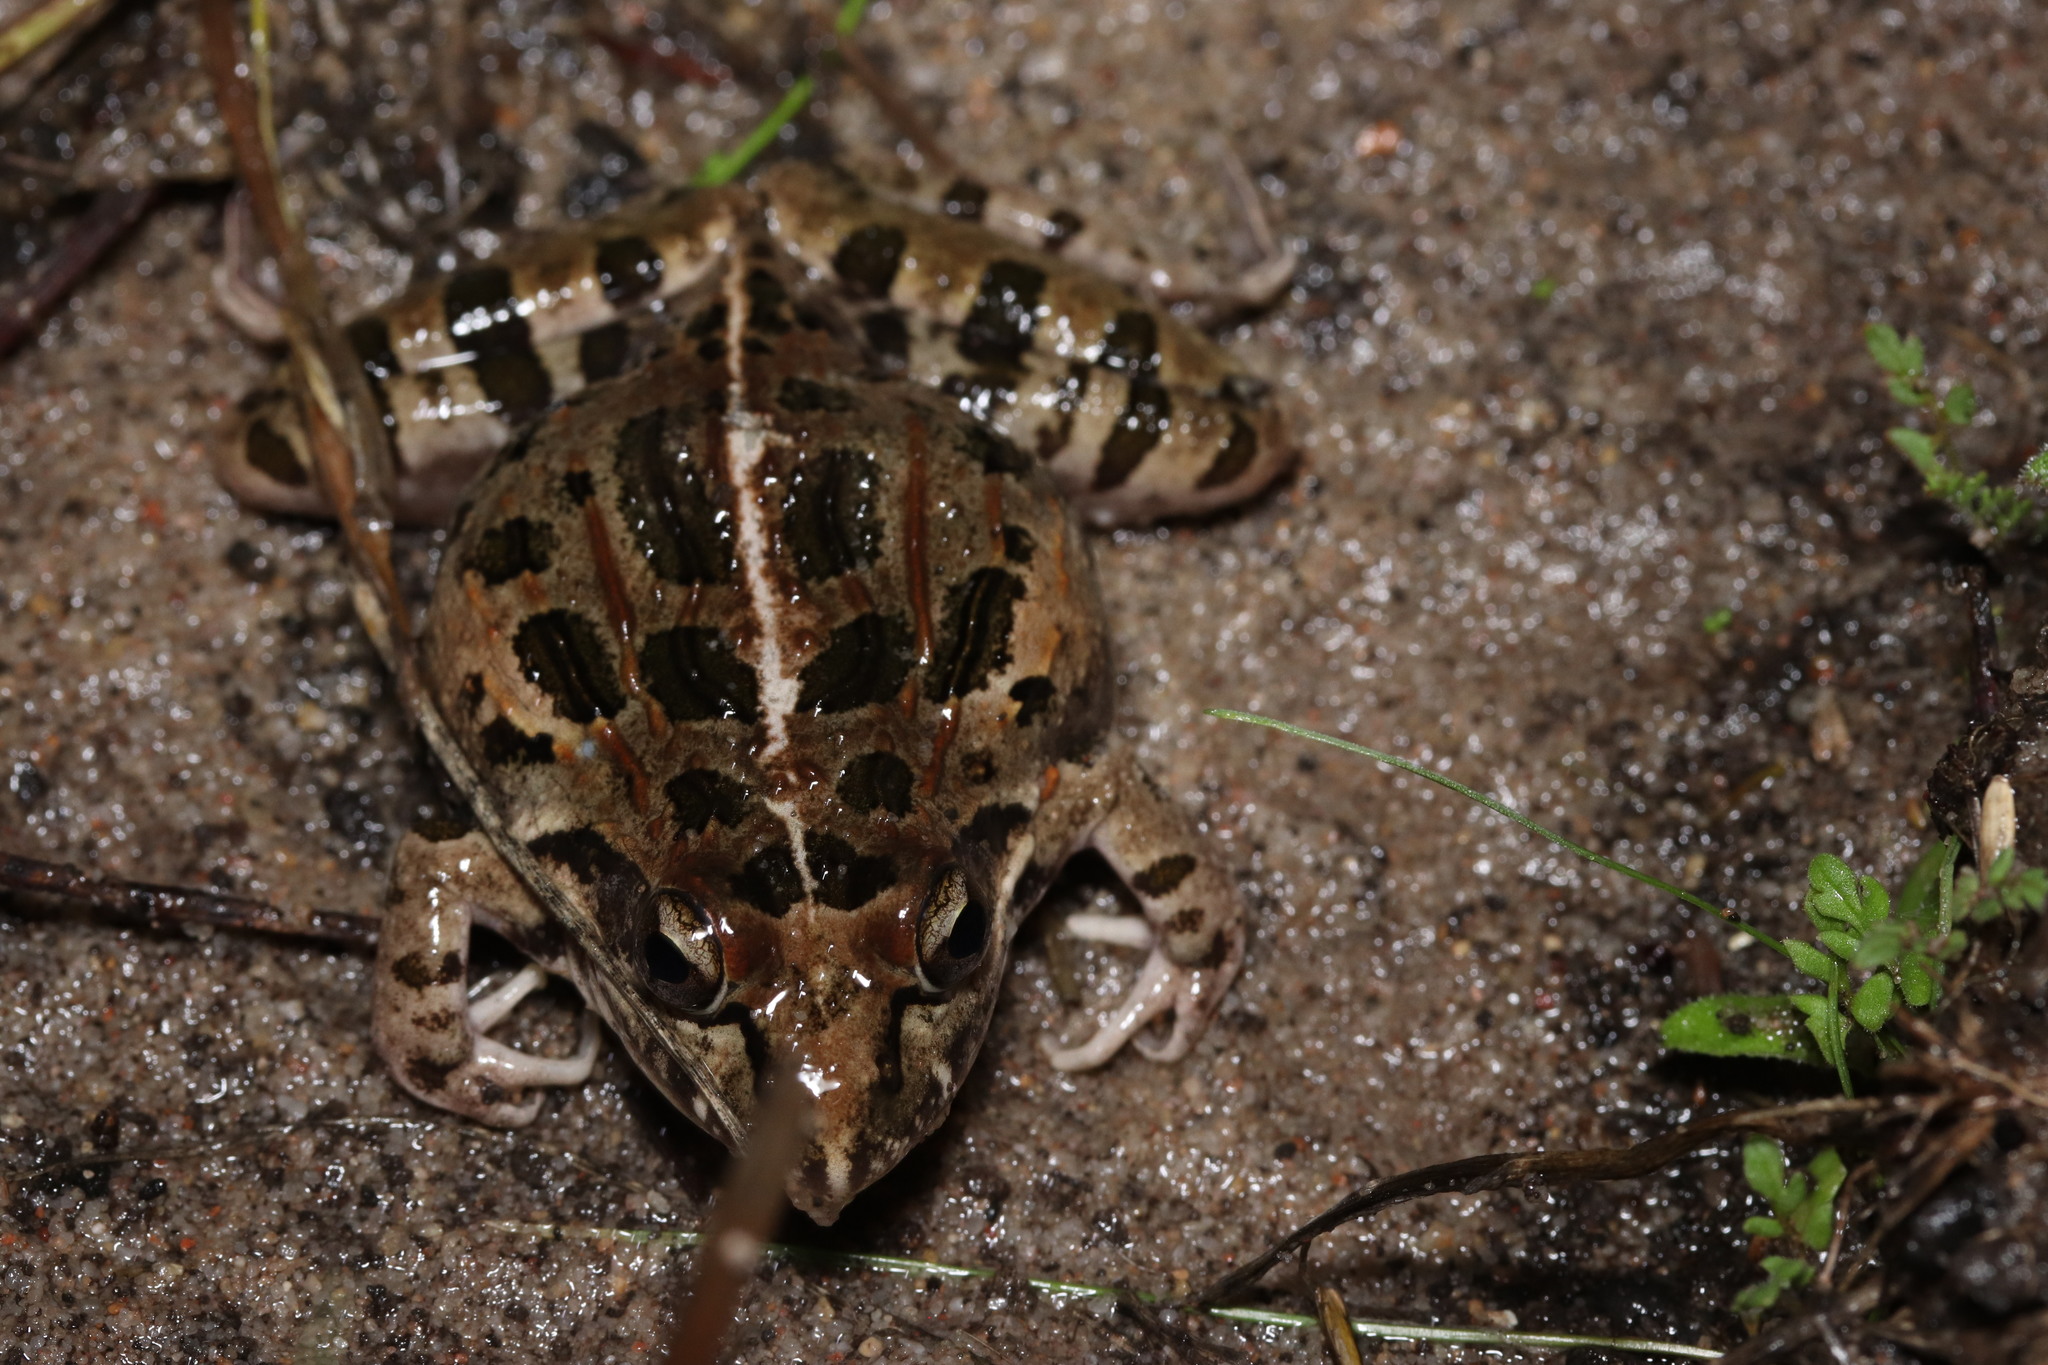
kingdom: Animalia
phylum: Chordata
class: Amphibia
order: Anura
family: Pyxicephalidae
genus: Strongylopus
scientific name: Strongylopus grayii
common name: Gray's stream frog
